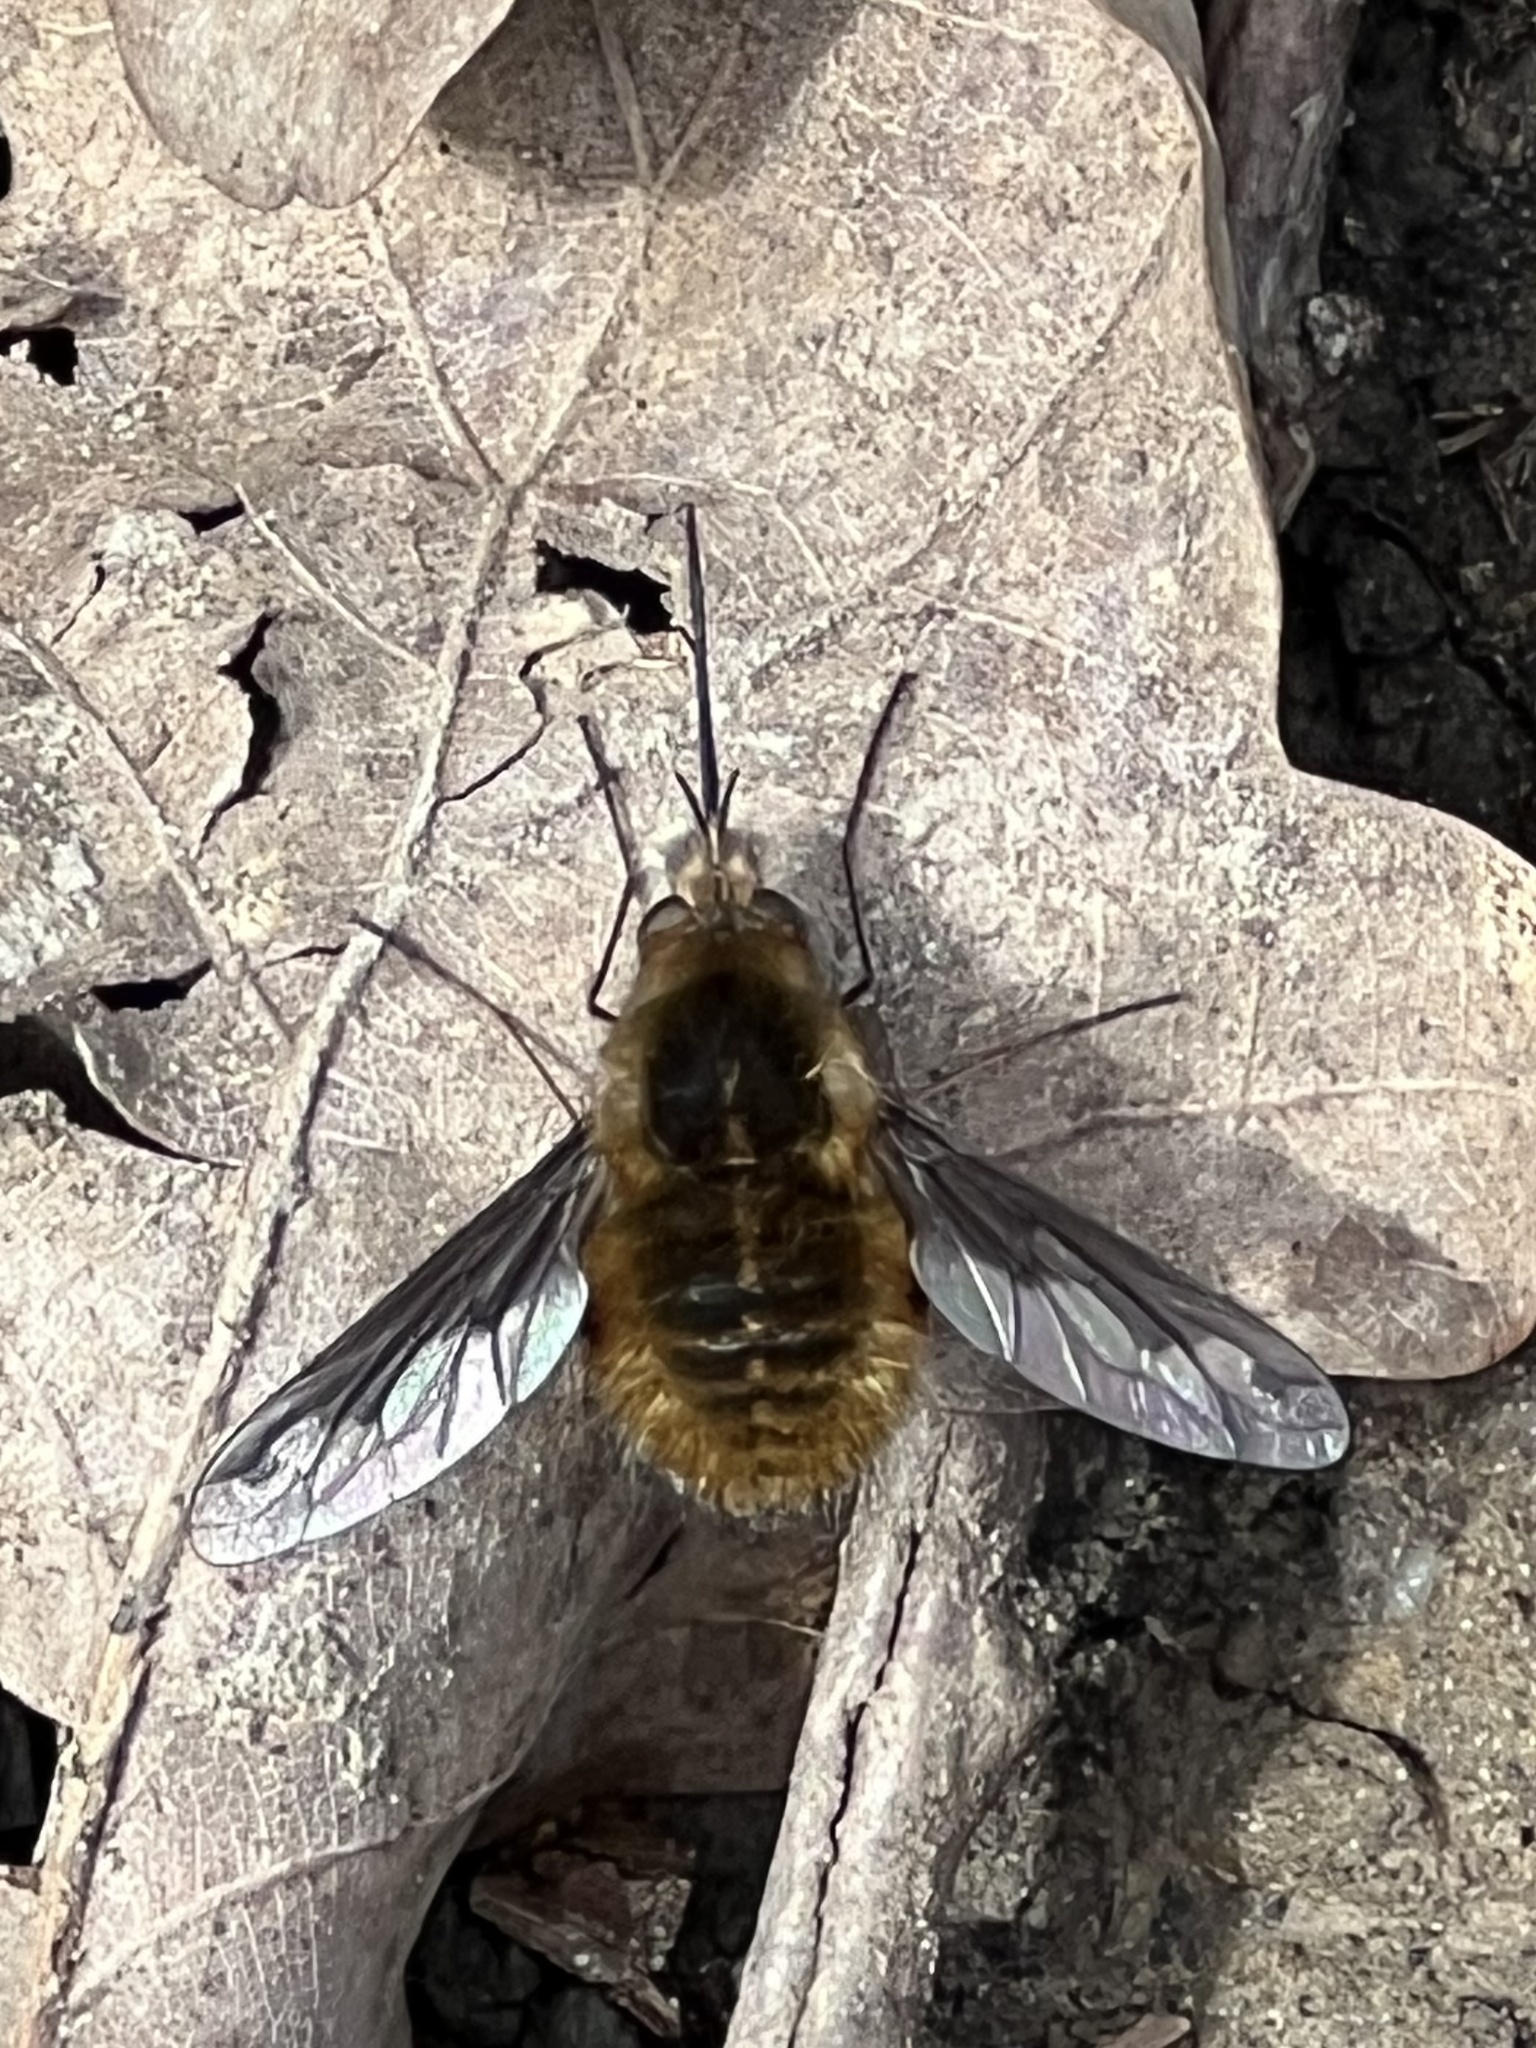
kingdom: Animalia
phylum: Arthropoda
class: Insecta
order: Diptera
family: Bombyliidae
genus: Bombylius
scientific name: Bombylius major
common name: Bee fly
